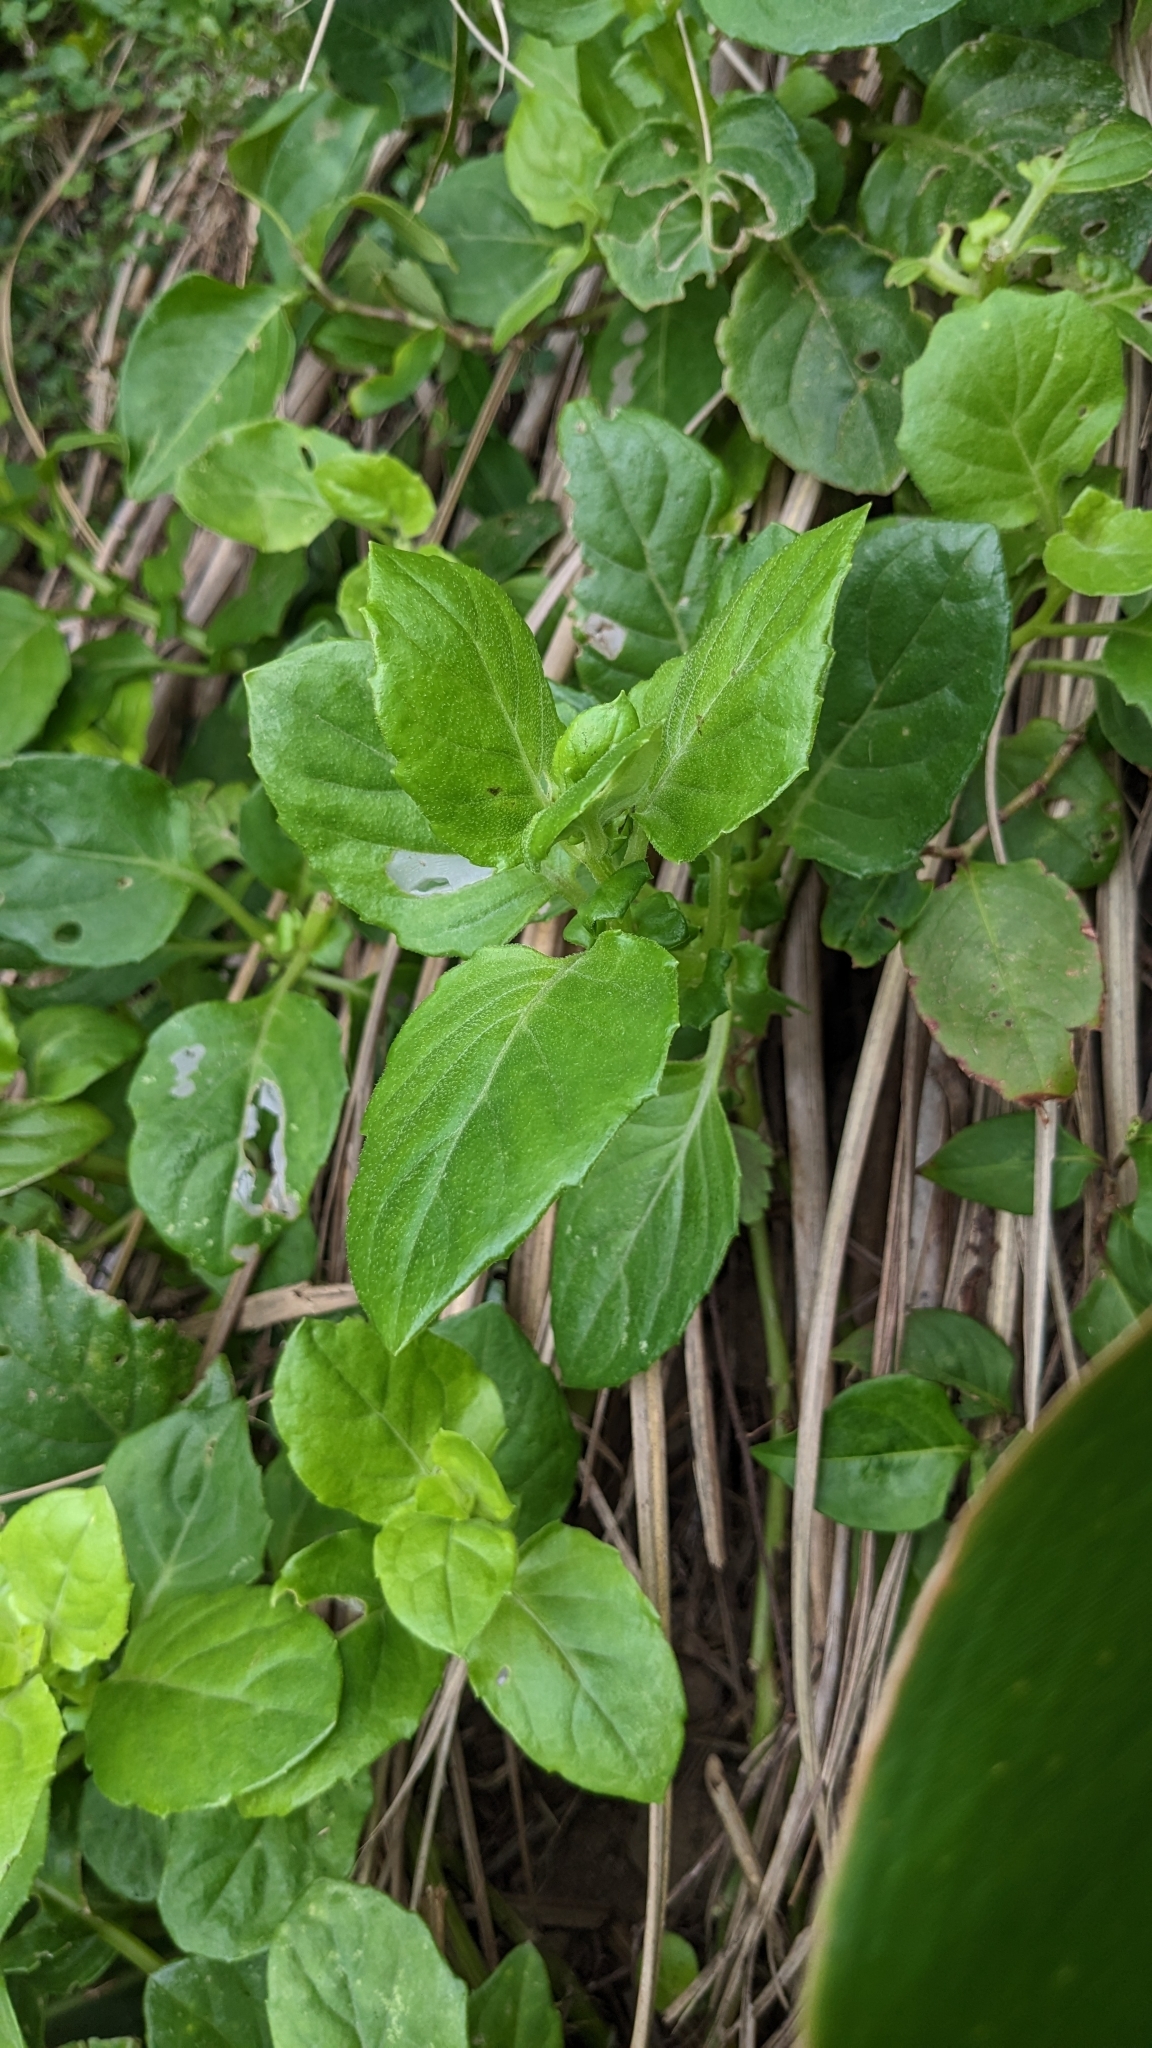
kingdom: Plantae
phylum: Tracheophyta
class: Magnoliopsida
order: Asterales
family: Asteraceae
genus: Gynura
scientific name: Gynura elliptica
